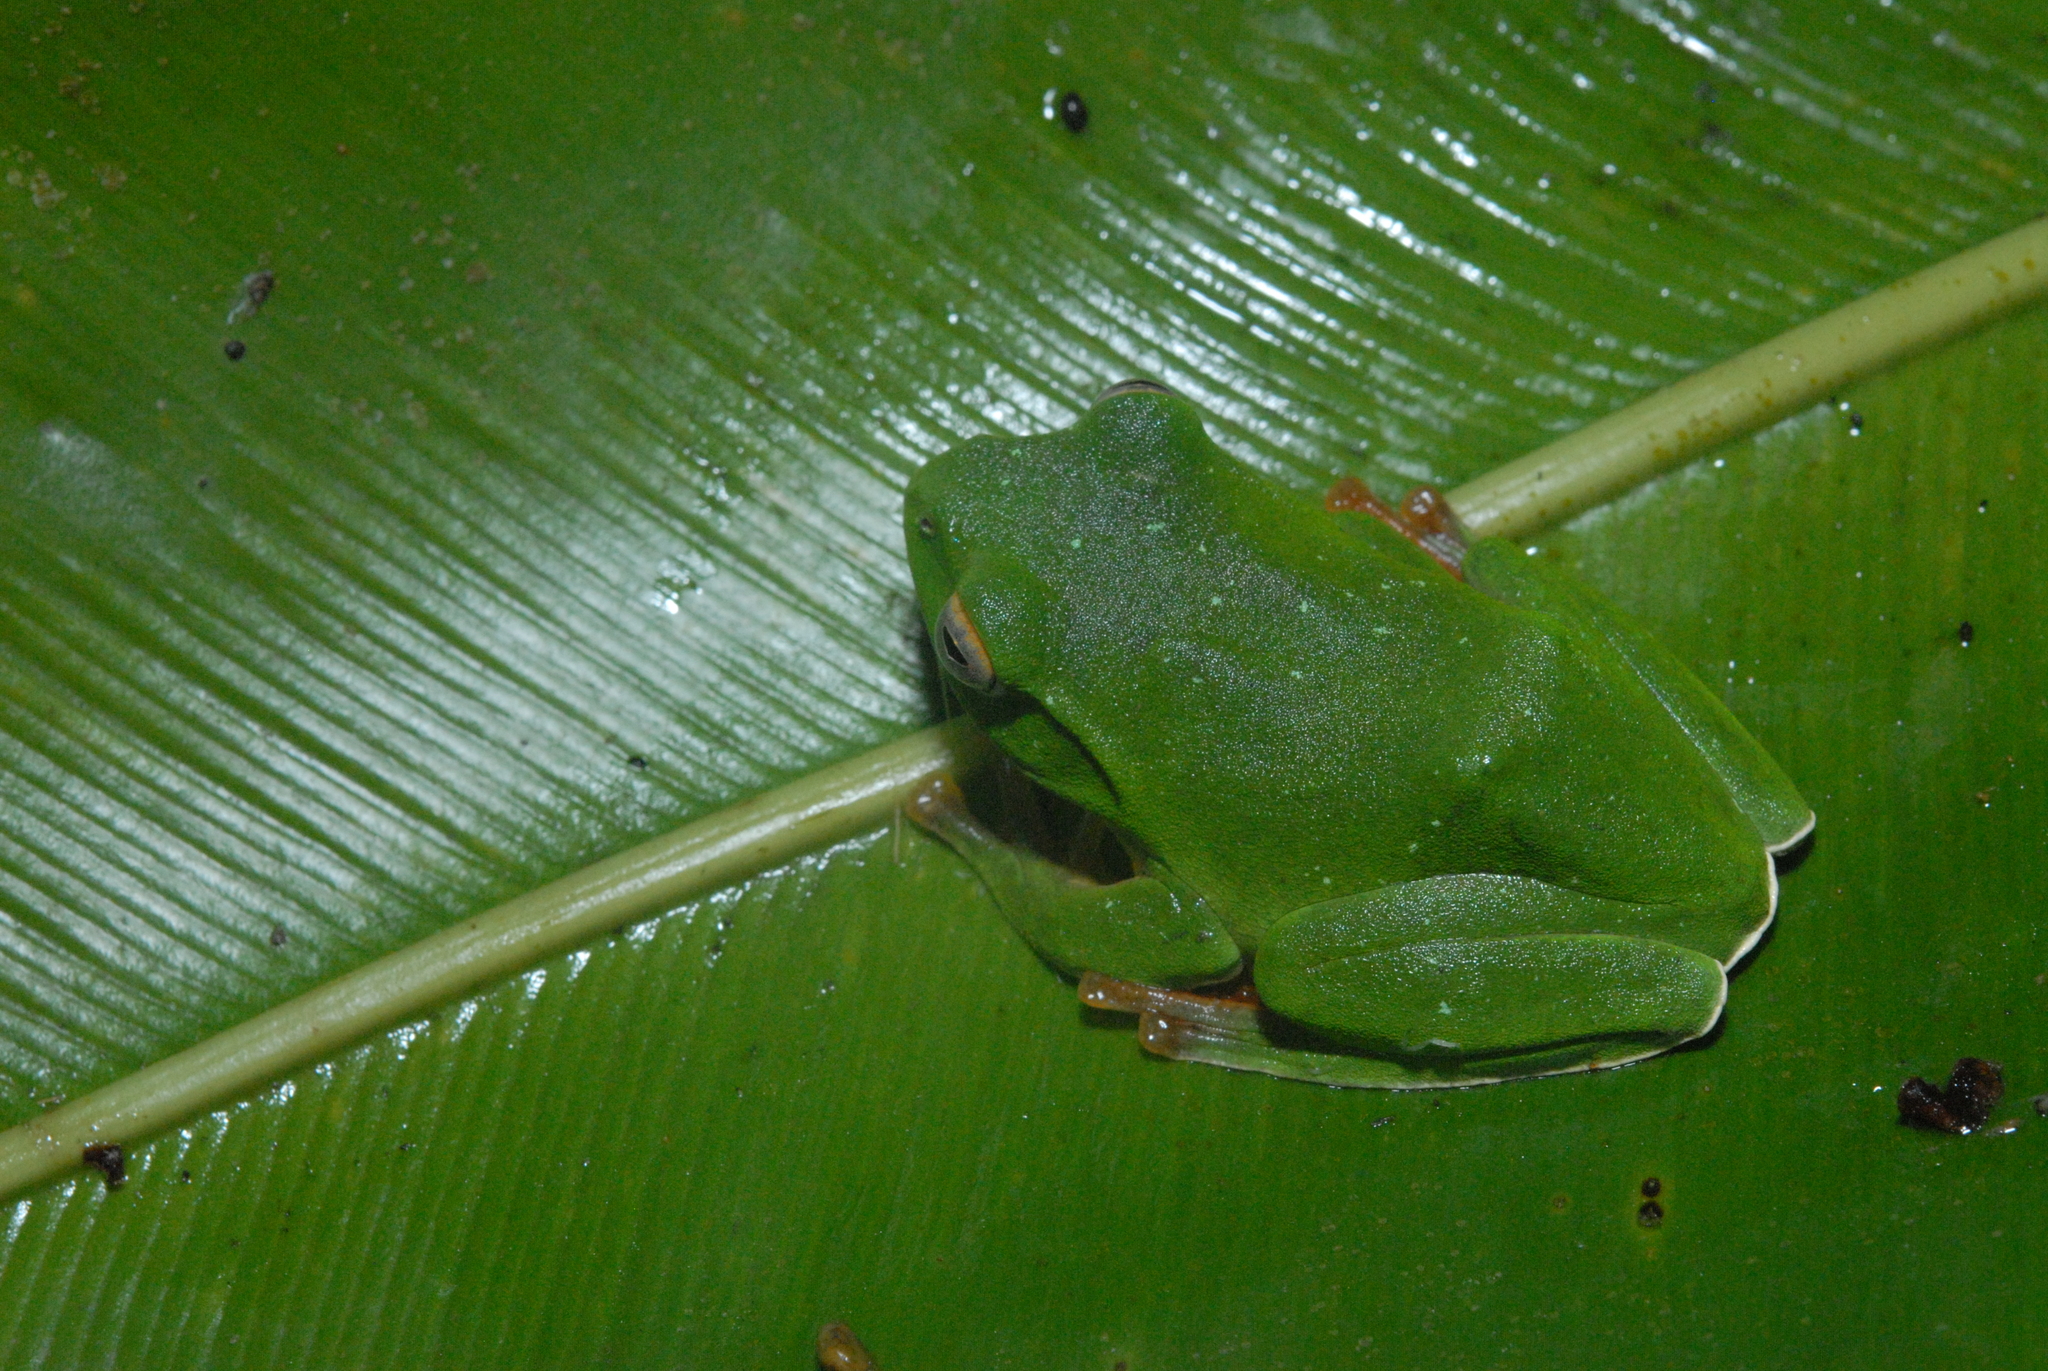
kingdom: Animalia
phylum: Chordata
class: Amphibia
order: Anura
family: Rhacophoridae
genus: Zhangixalus
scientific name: Zhangixalus moltrechti
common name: Moltrecht's treefrog
